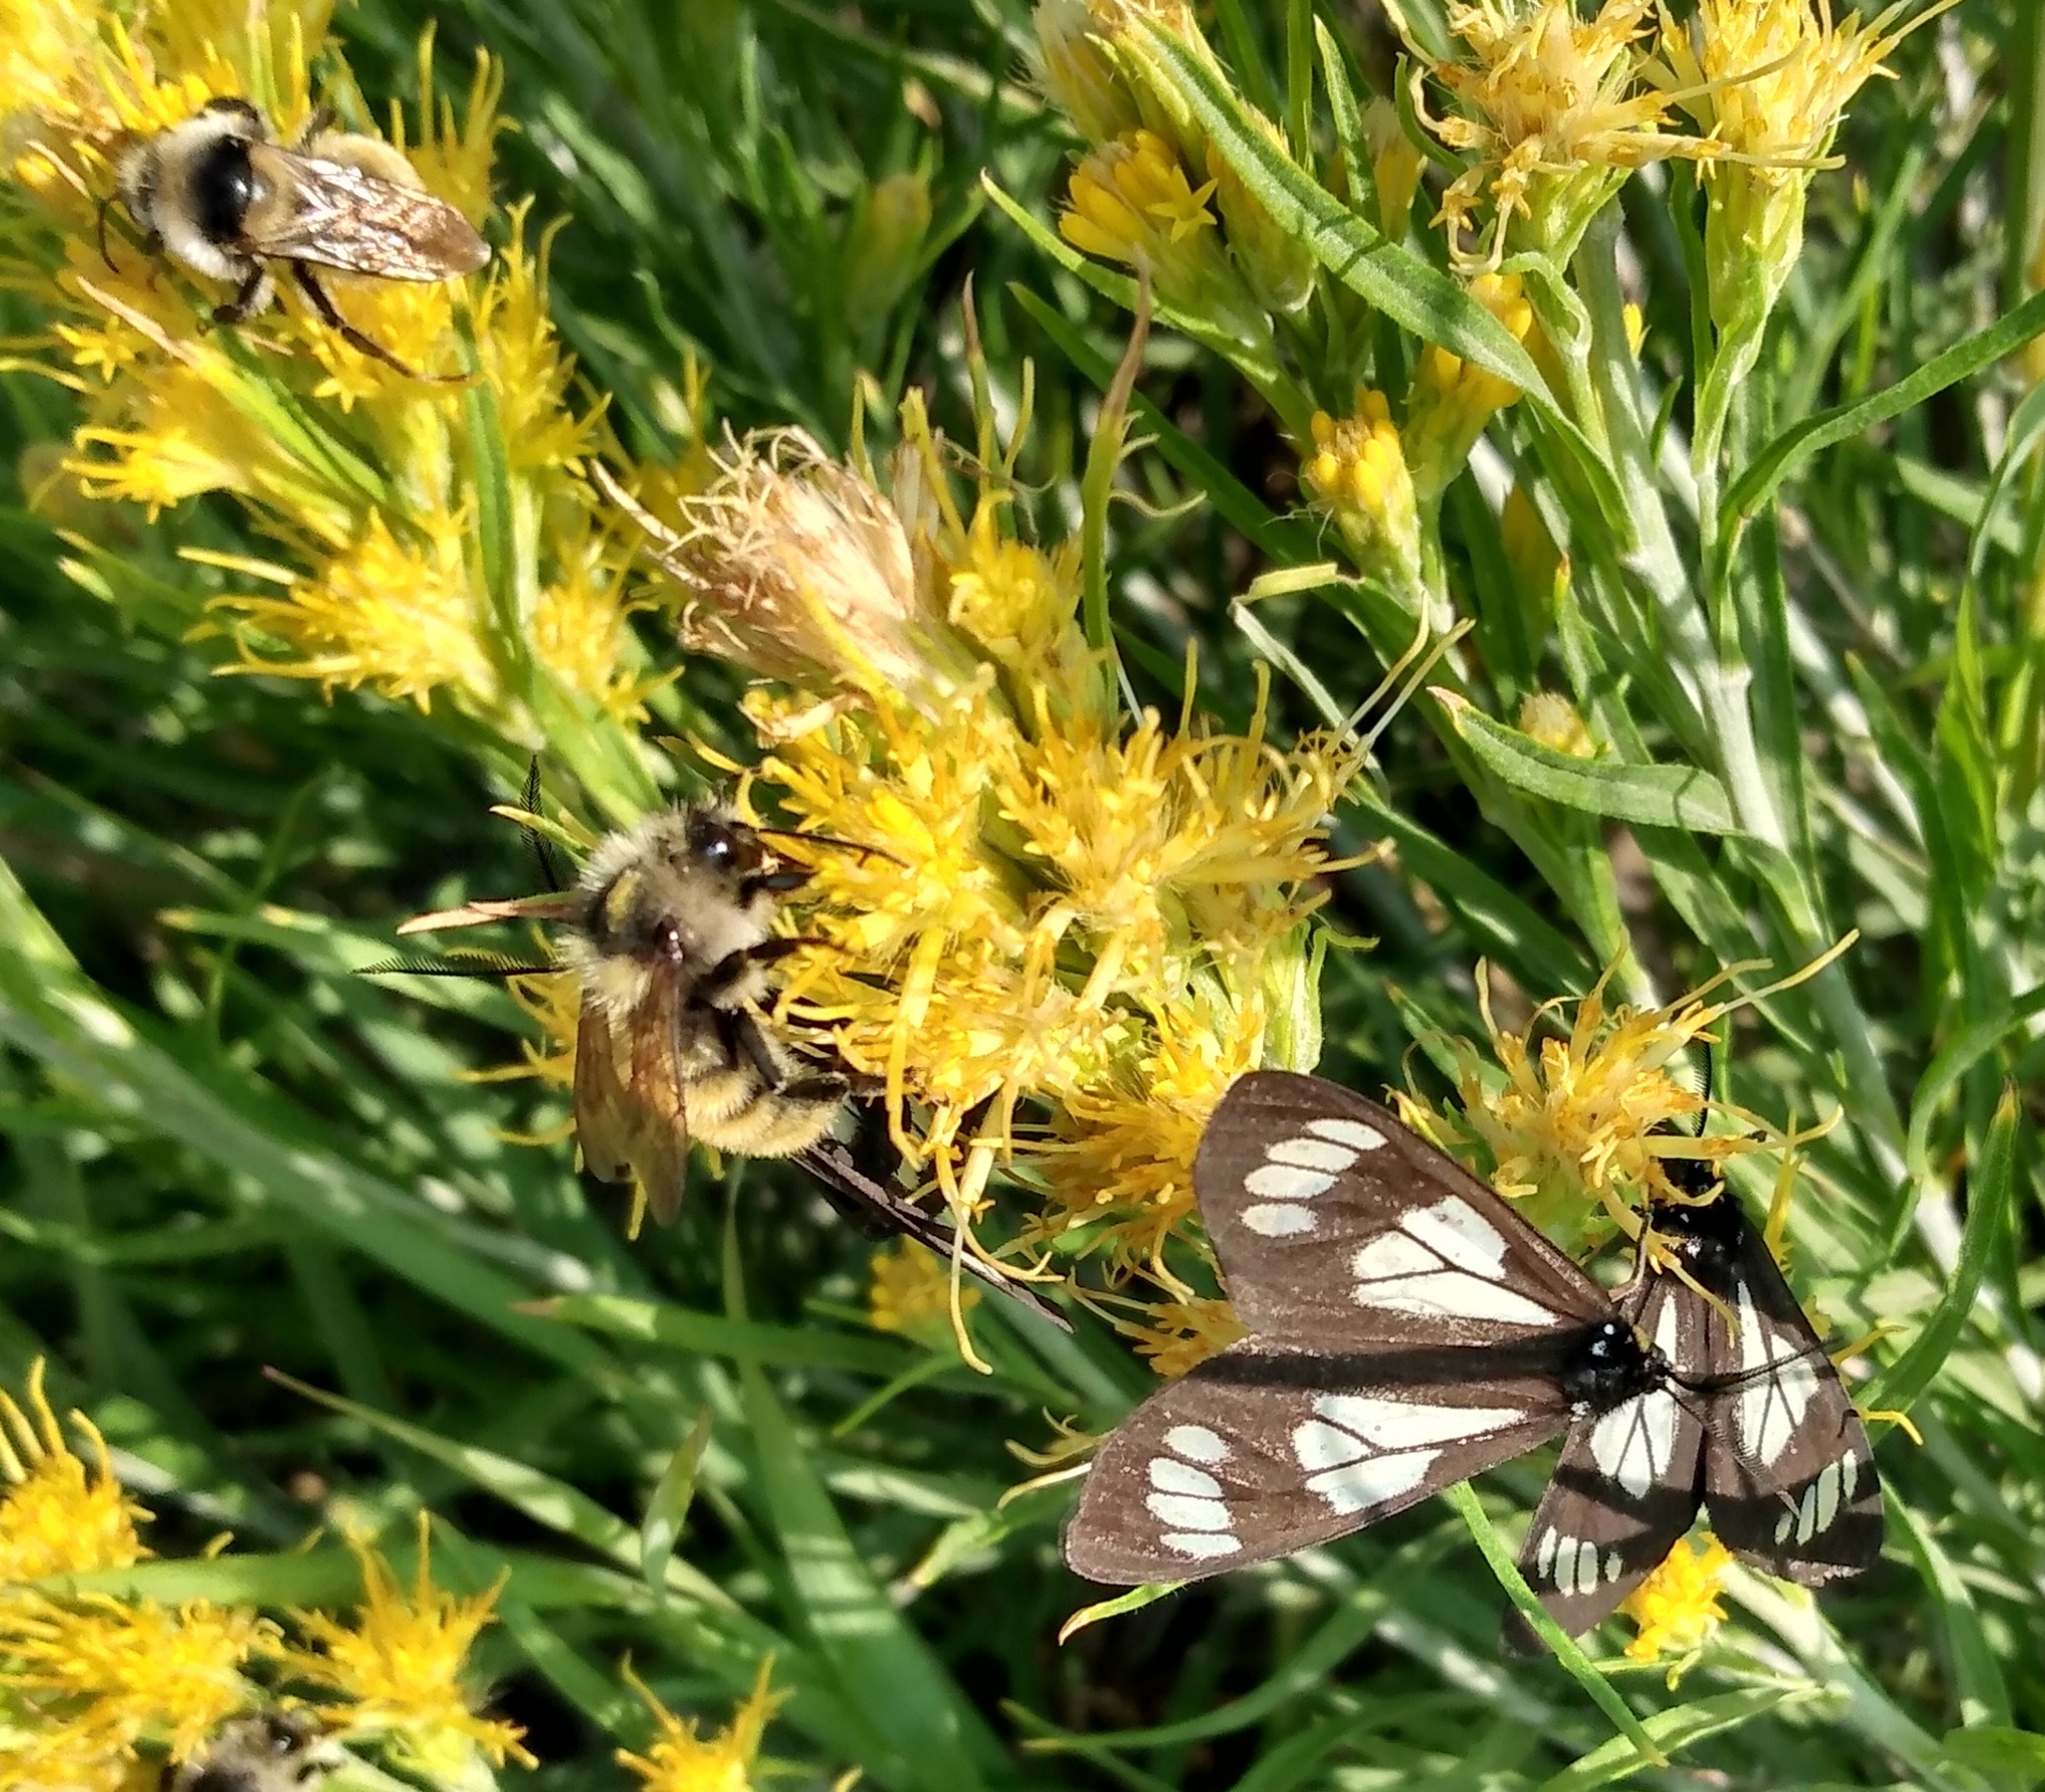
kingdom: Animalia
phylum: Arthropoda
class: Insecta
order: Lepidoptera
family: Erebidae
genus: Gnophaela
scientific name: Gnophaela vermiculata
